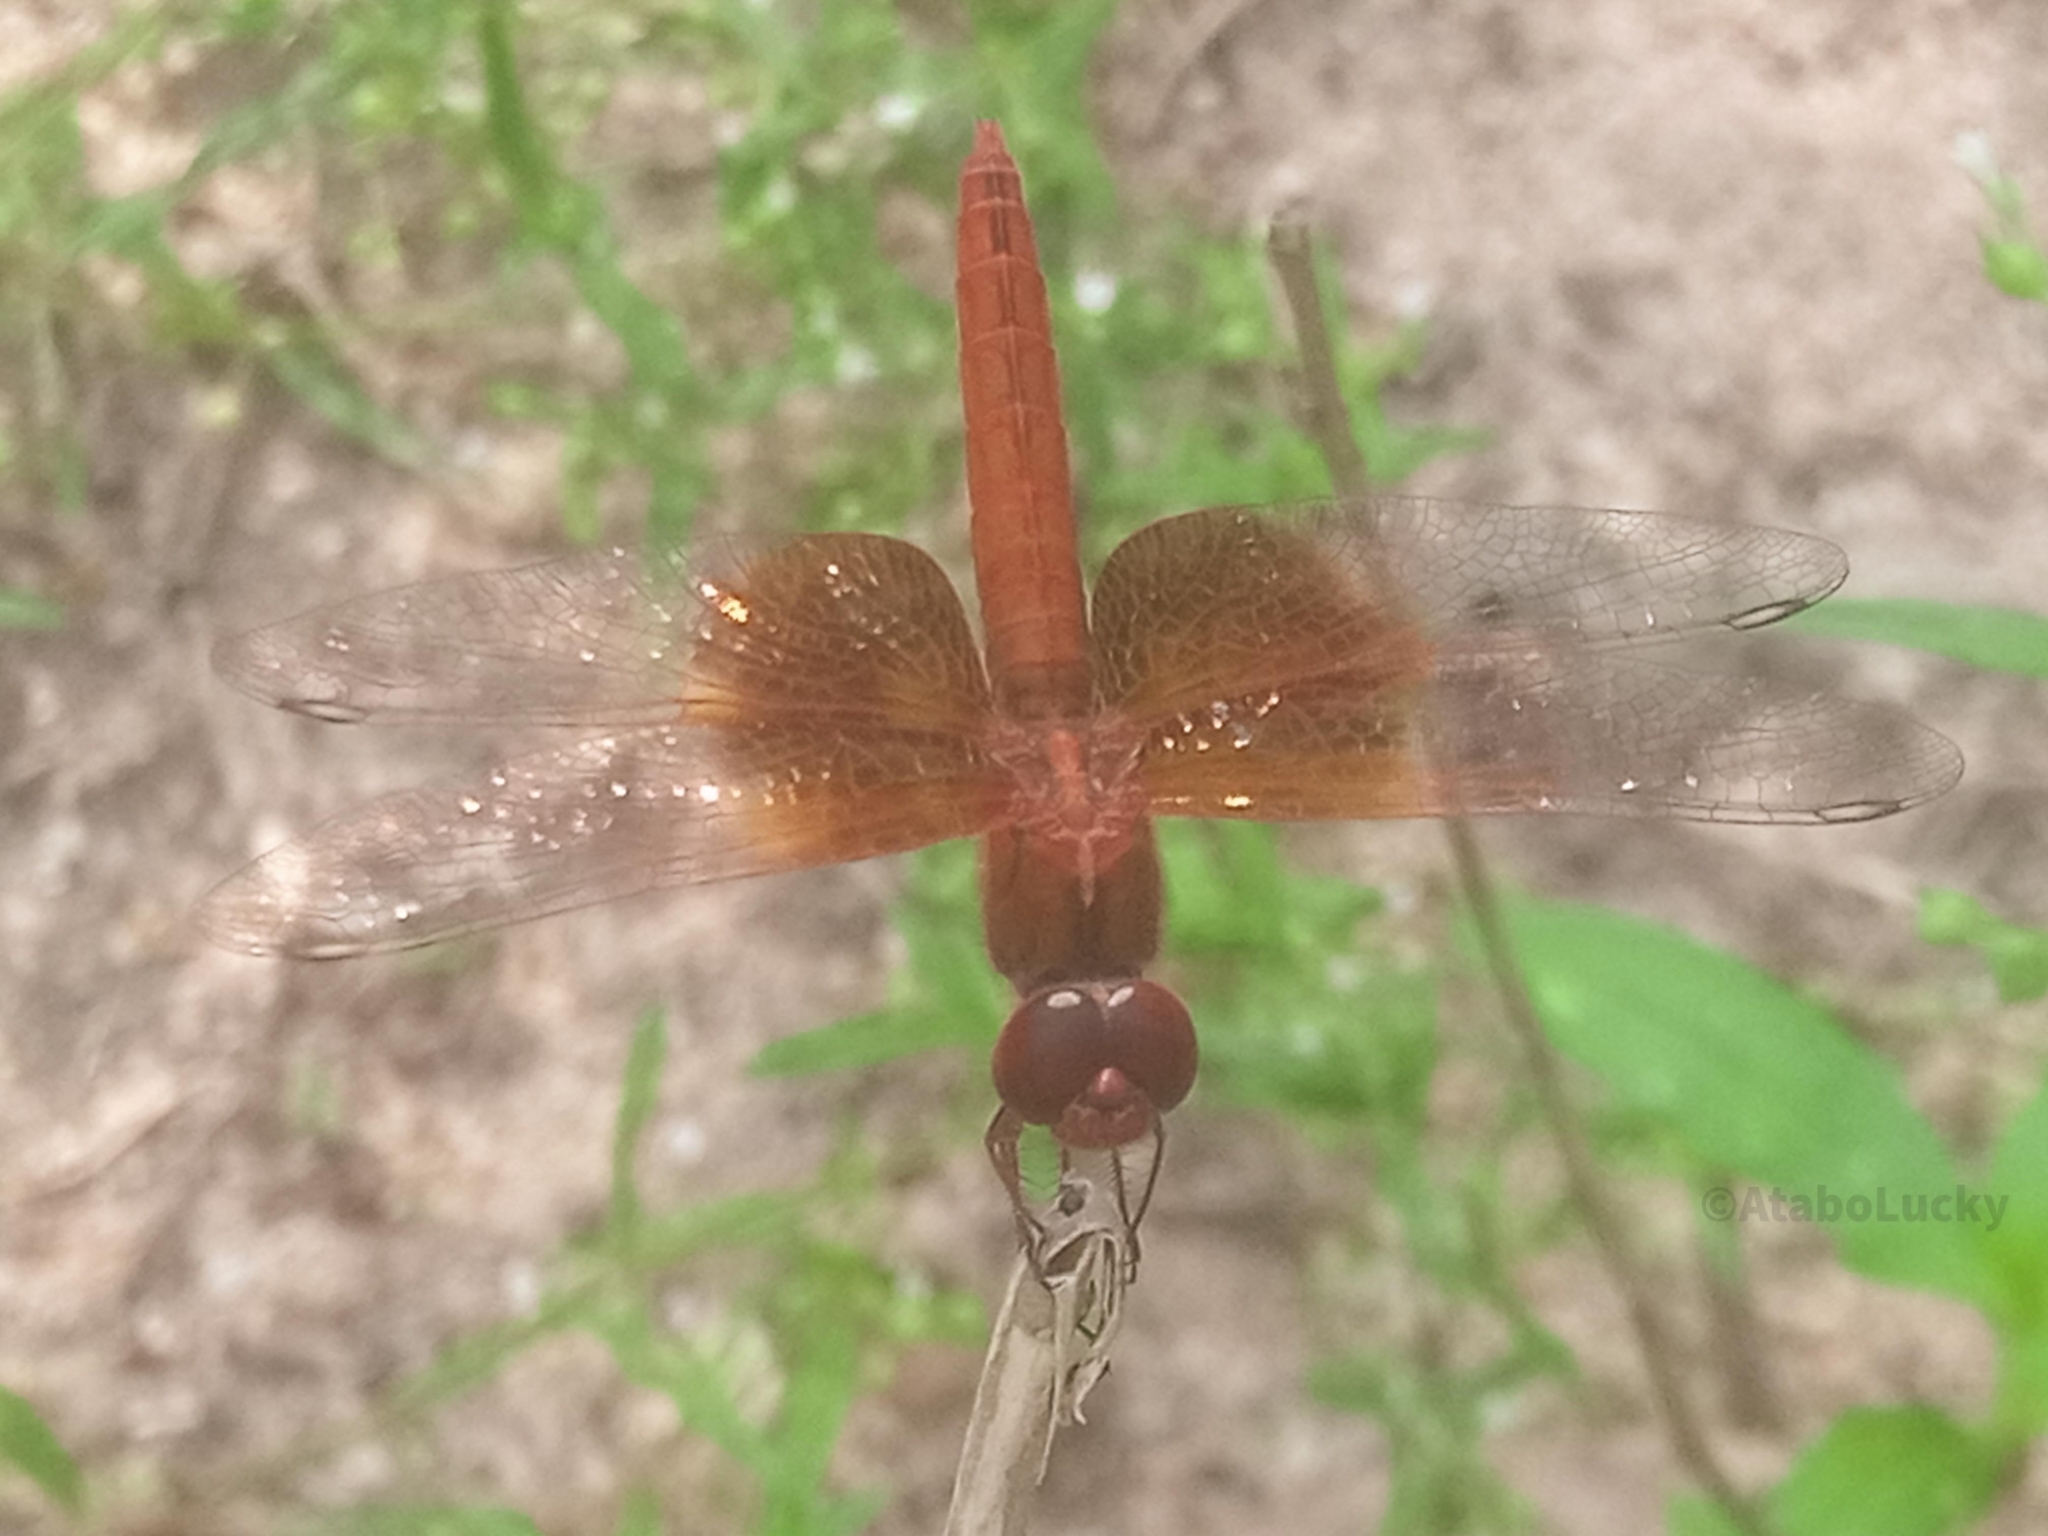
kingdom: Animalia
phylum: Arthropoda
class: Insecta
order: Odonata
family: Libellulidae
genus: Brachythemis
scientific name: Brachythemis lacustris
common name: Red groundling
